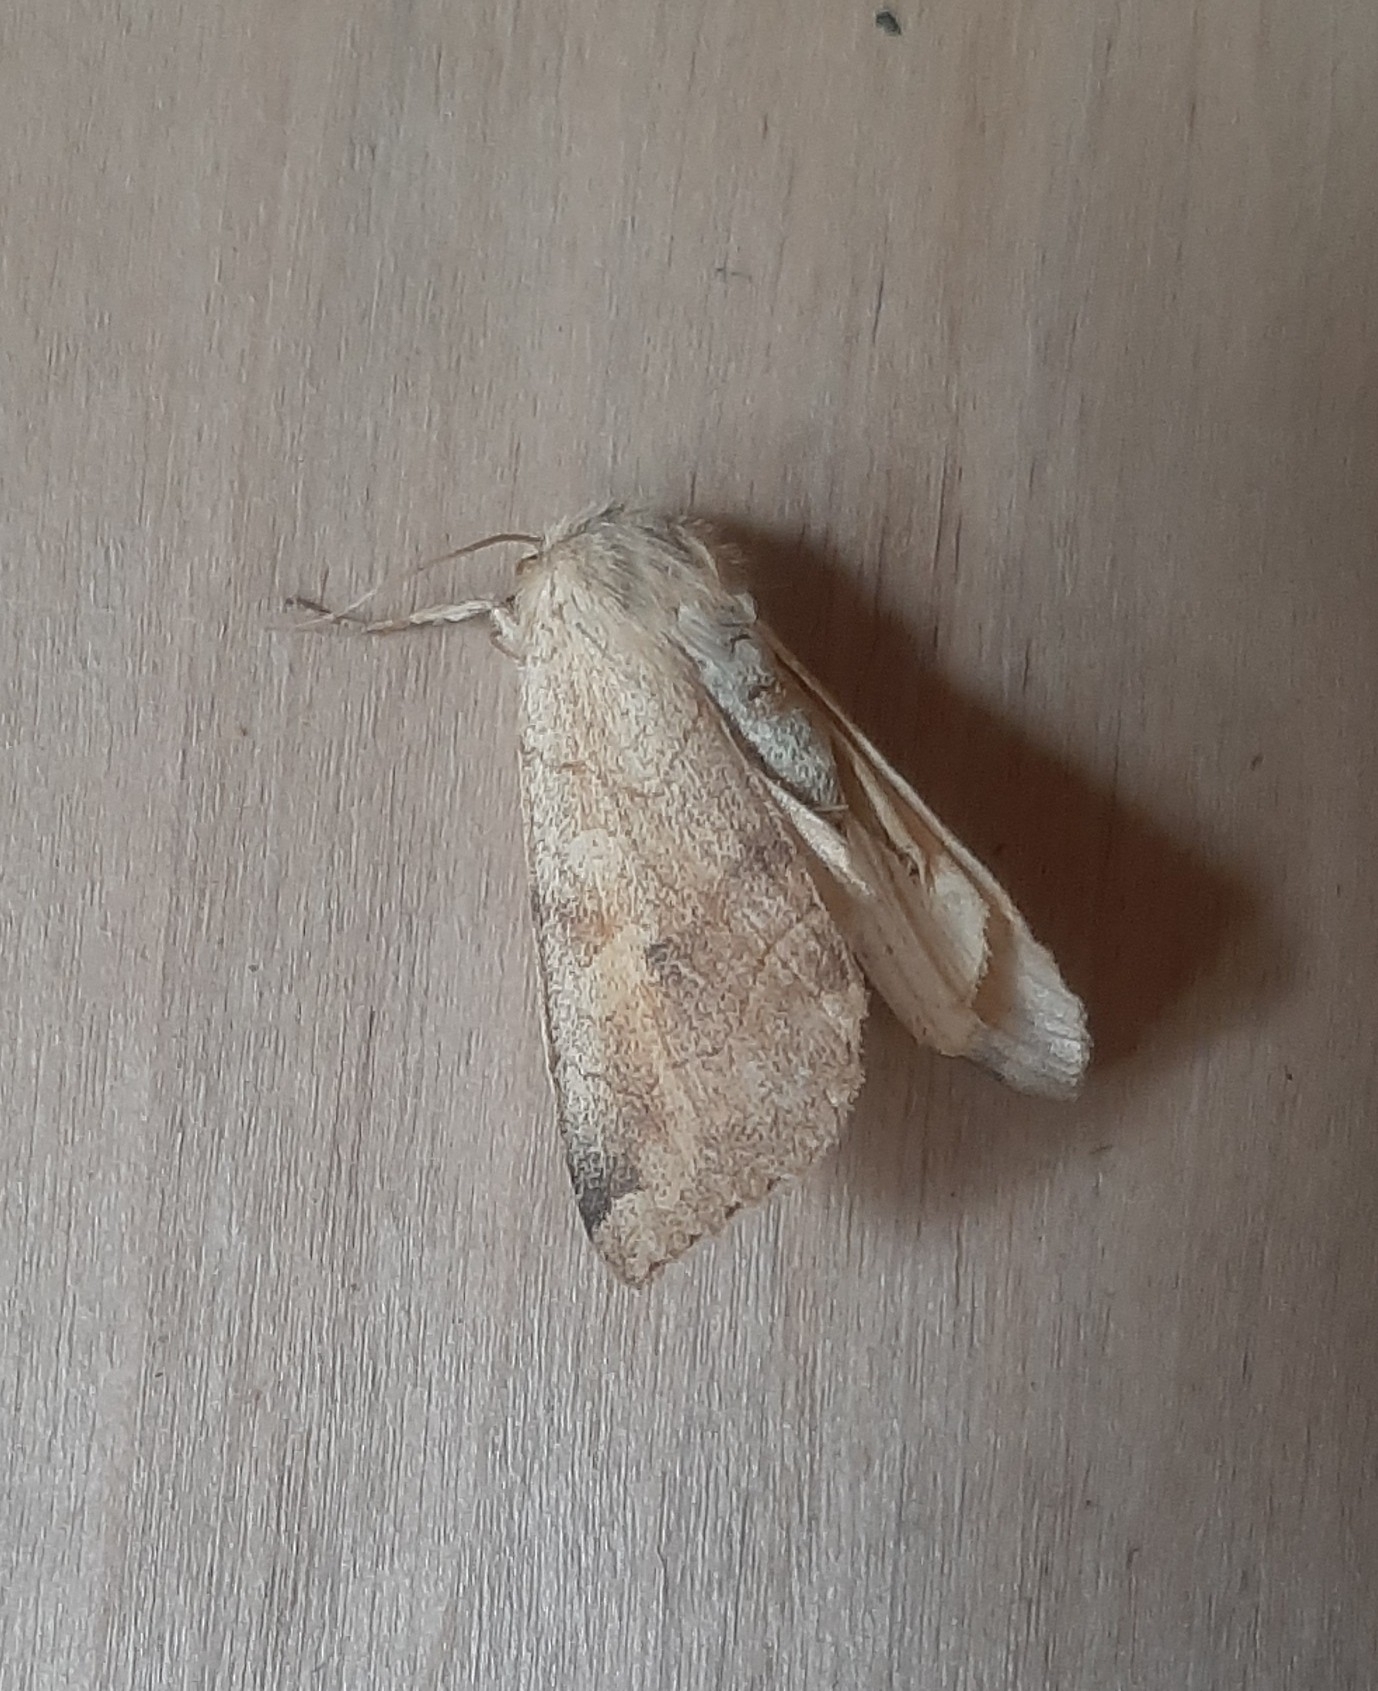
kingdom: Animalia
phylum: Arthropoda
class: Insecta
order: Lepidoptera
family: Noctuidae
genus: Enargia
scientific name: Enargia paleacea
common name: Angle-striped sallow
